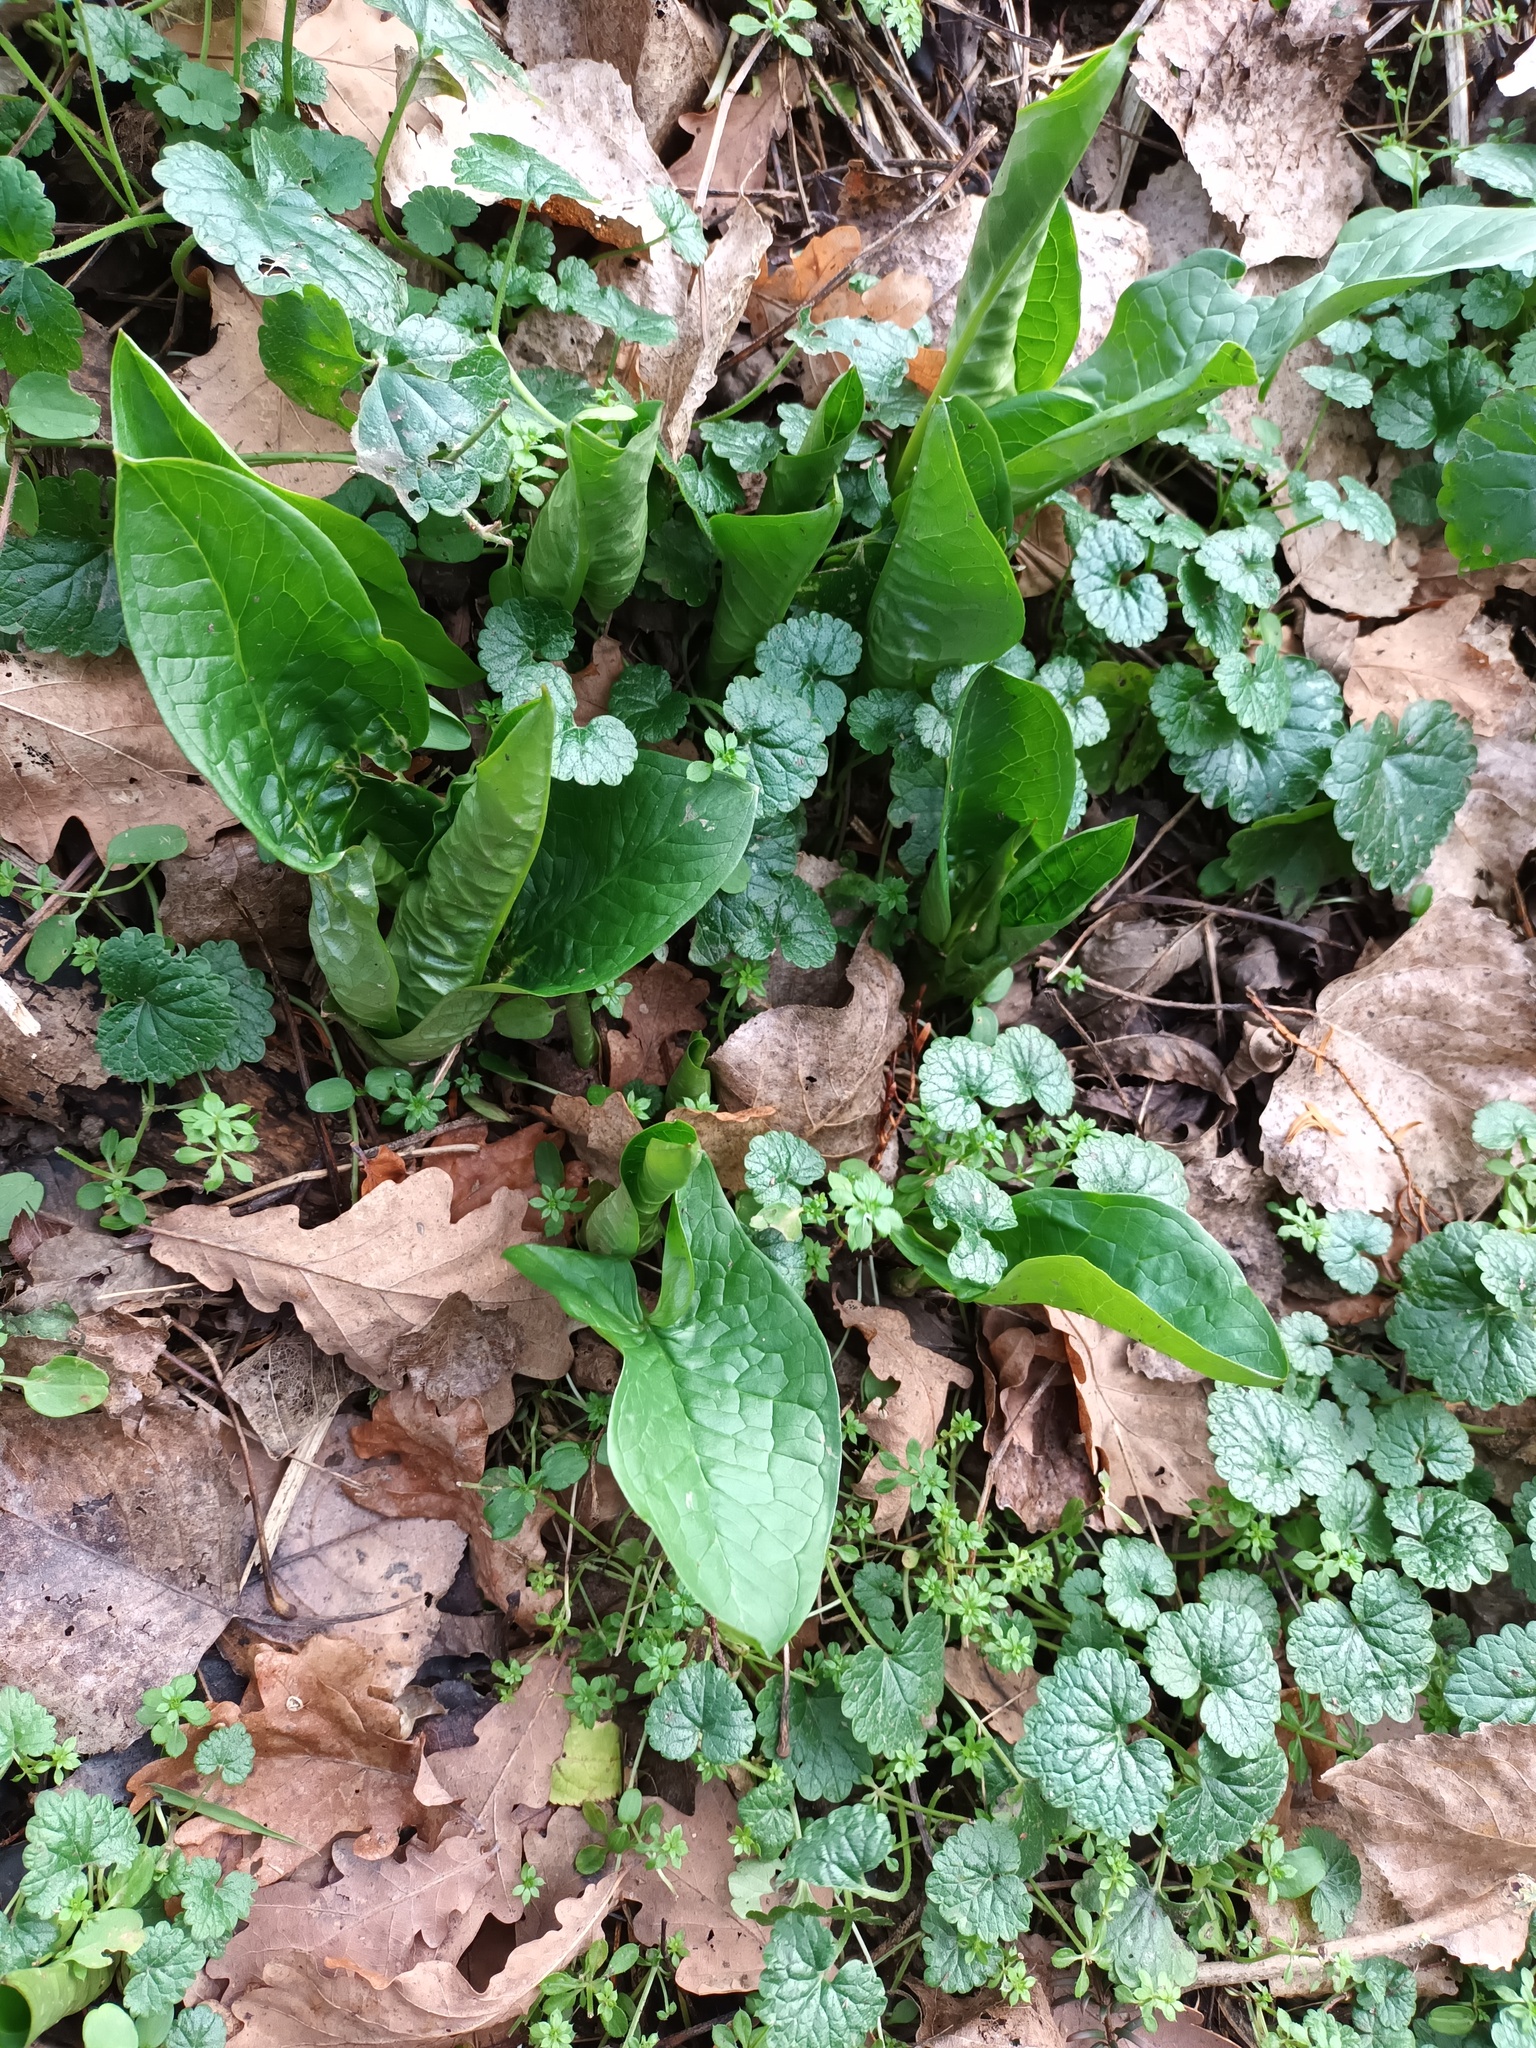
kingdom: Plantae
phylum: Tracheophyta
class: Liliopsida
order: Alismatales
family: Araceae
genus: Arum
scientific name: Arum maculatum
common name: Lords-and-ladies
